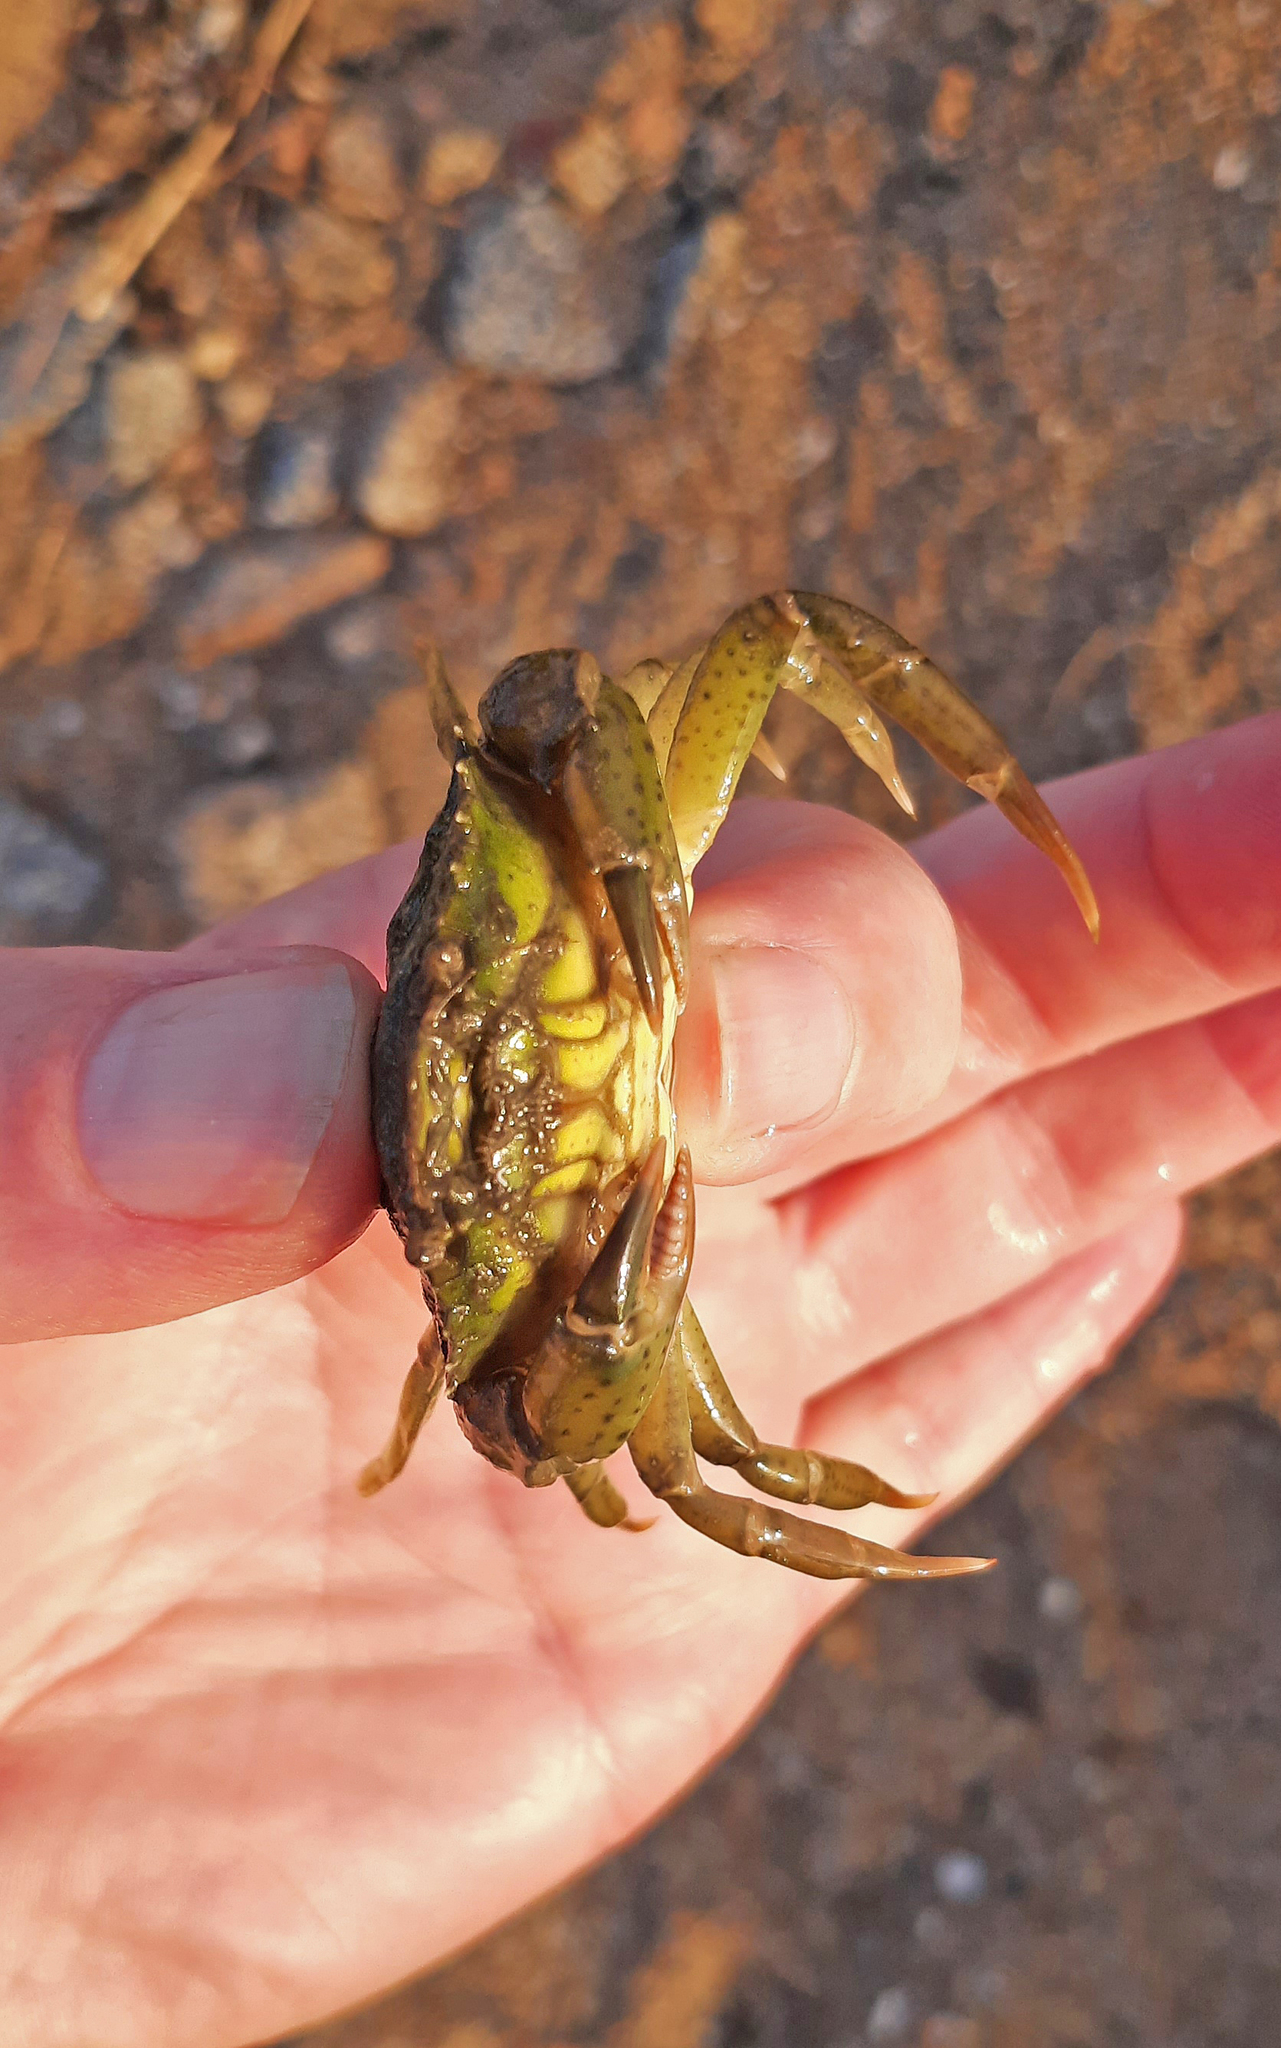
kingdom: Animalia
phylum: Arthropoda
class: Malacostraca
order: Decapoda
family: Carcinidae
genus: Carcinus
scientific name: Carcinus aestuarii
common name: Mediterranean green crab
